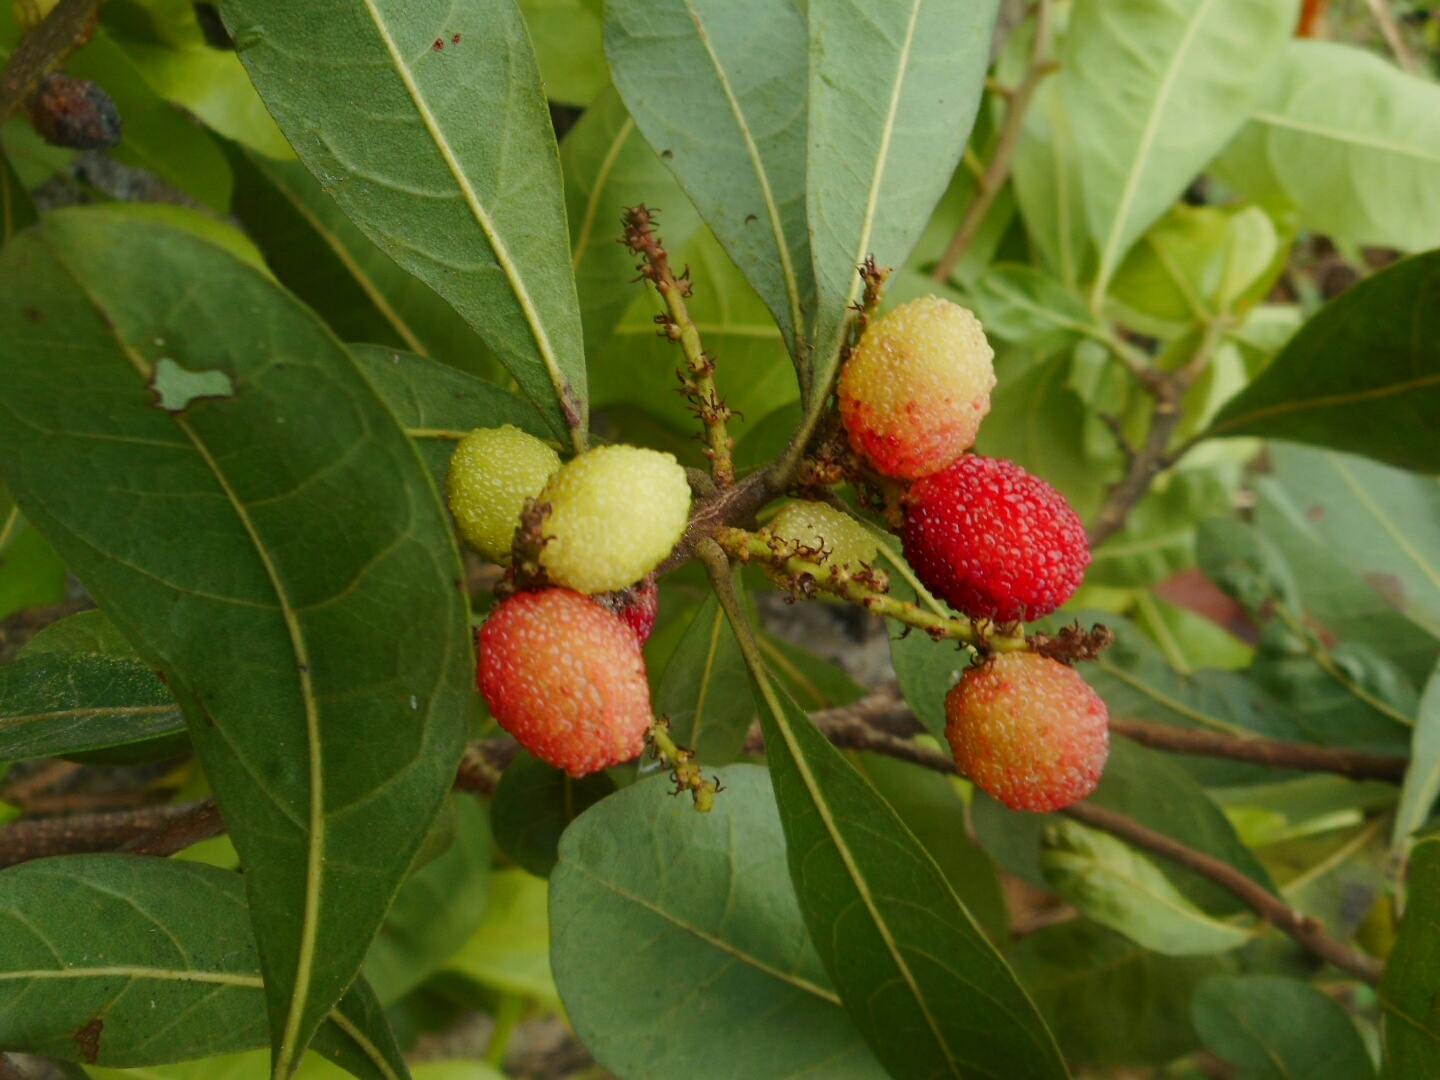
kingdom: Plantae
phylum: Tracheophyta
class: Magnoliopsida
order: Fagales
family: Myricaceae
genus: Morella
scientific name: Morella esculenta
